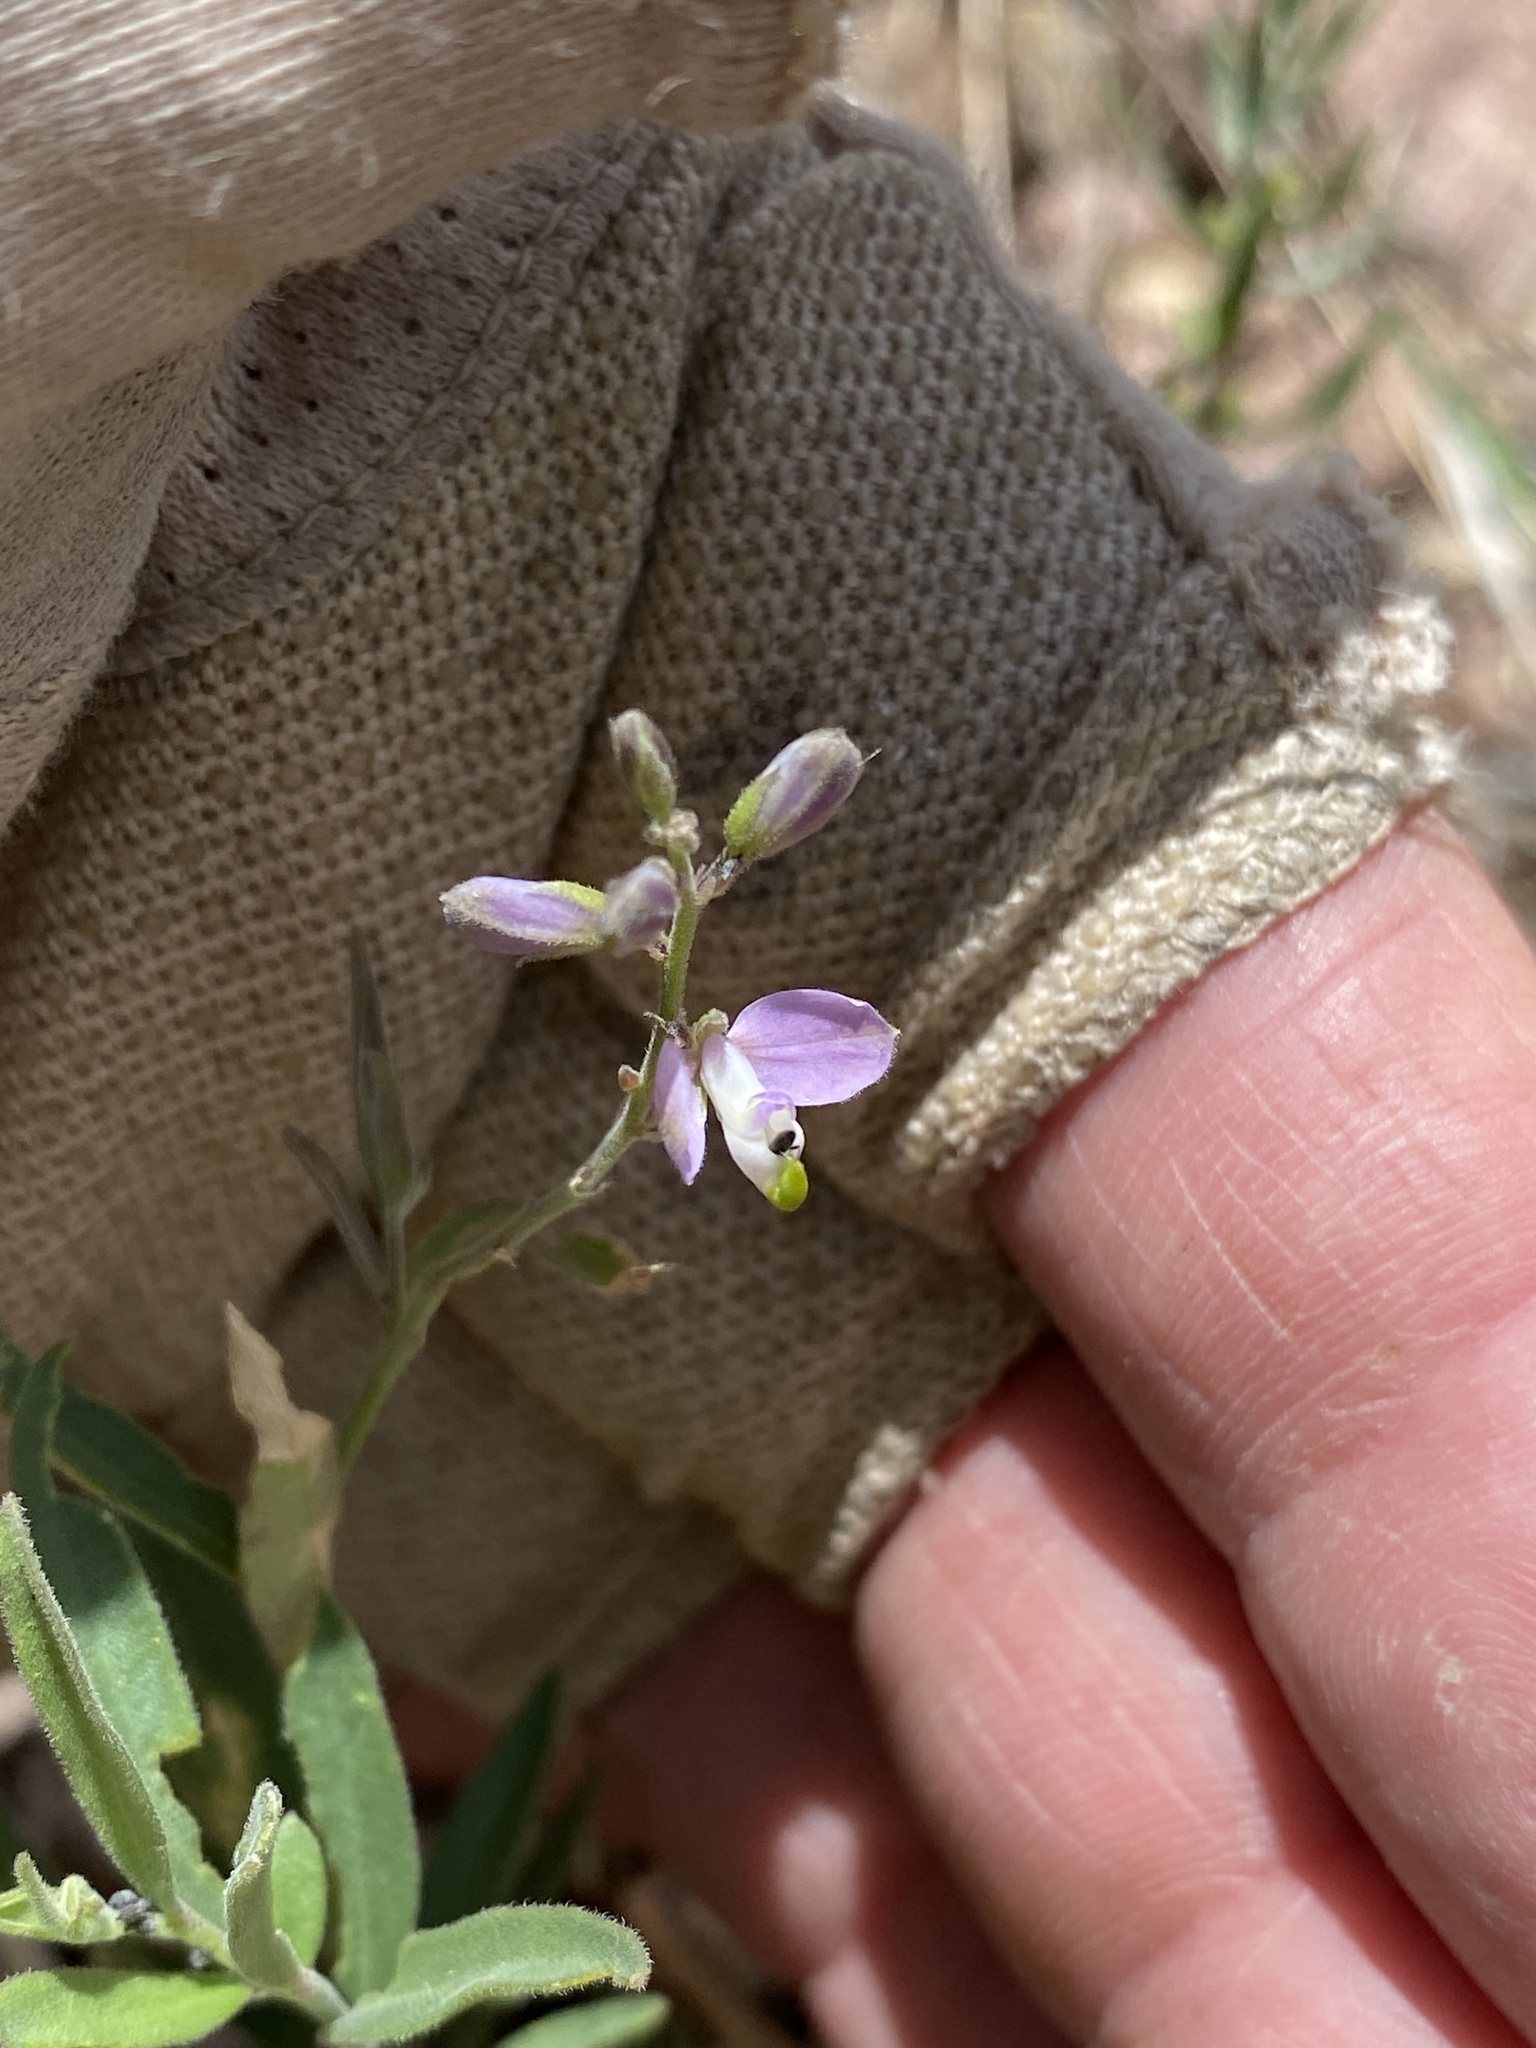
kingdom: Plantae
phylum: Tracheophyta
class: Magnoliopsida
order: Fabales
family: Polygalaceae
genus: Hebecarpa
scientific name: Hebecarpa obscura
